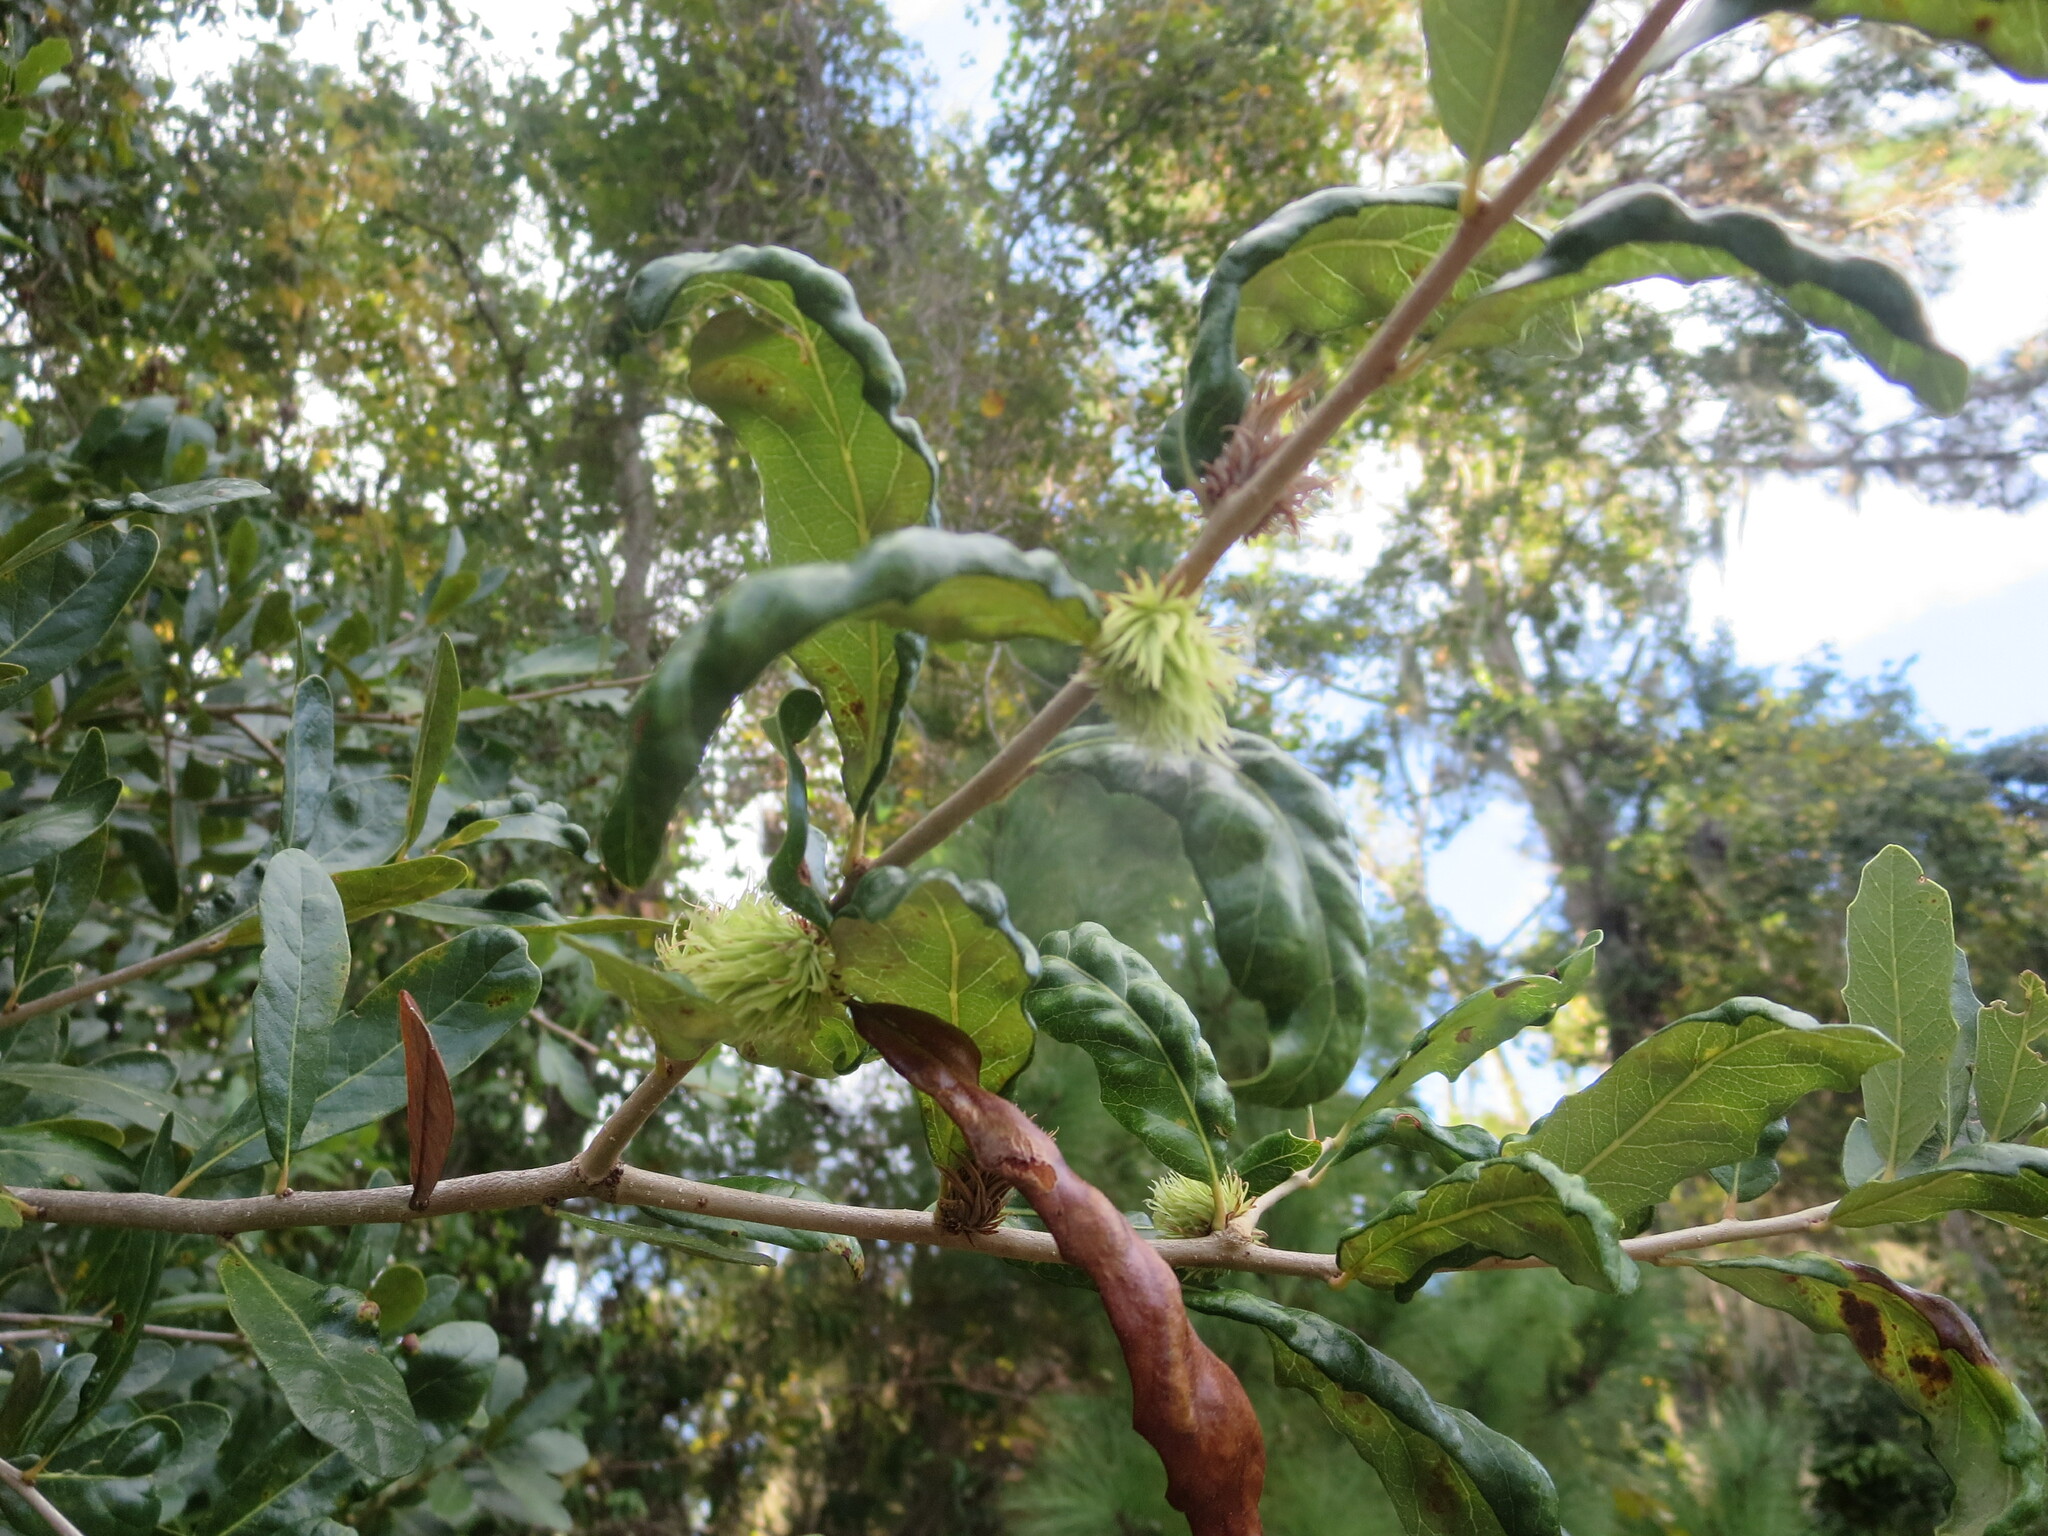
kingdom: Animalia
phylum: Arthropoda
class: Insecta
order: Hymenoptera
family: Cynipidae
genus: Andricus
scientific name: Andricus quercusfoliatus
